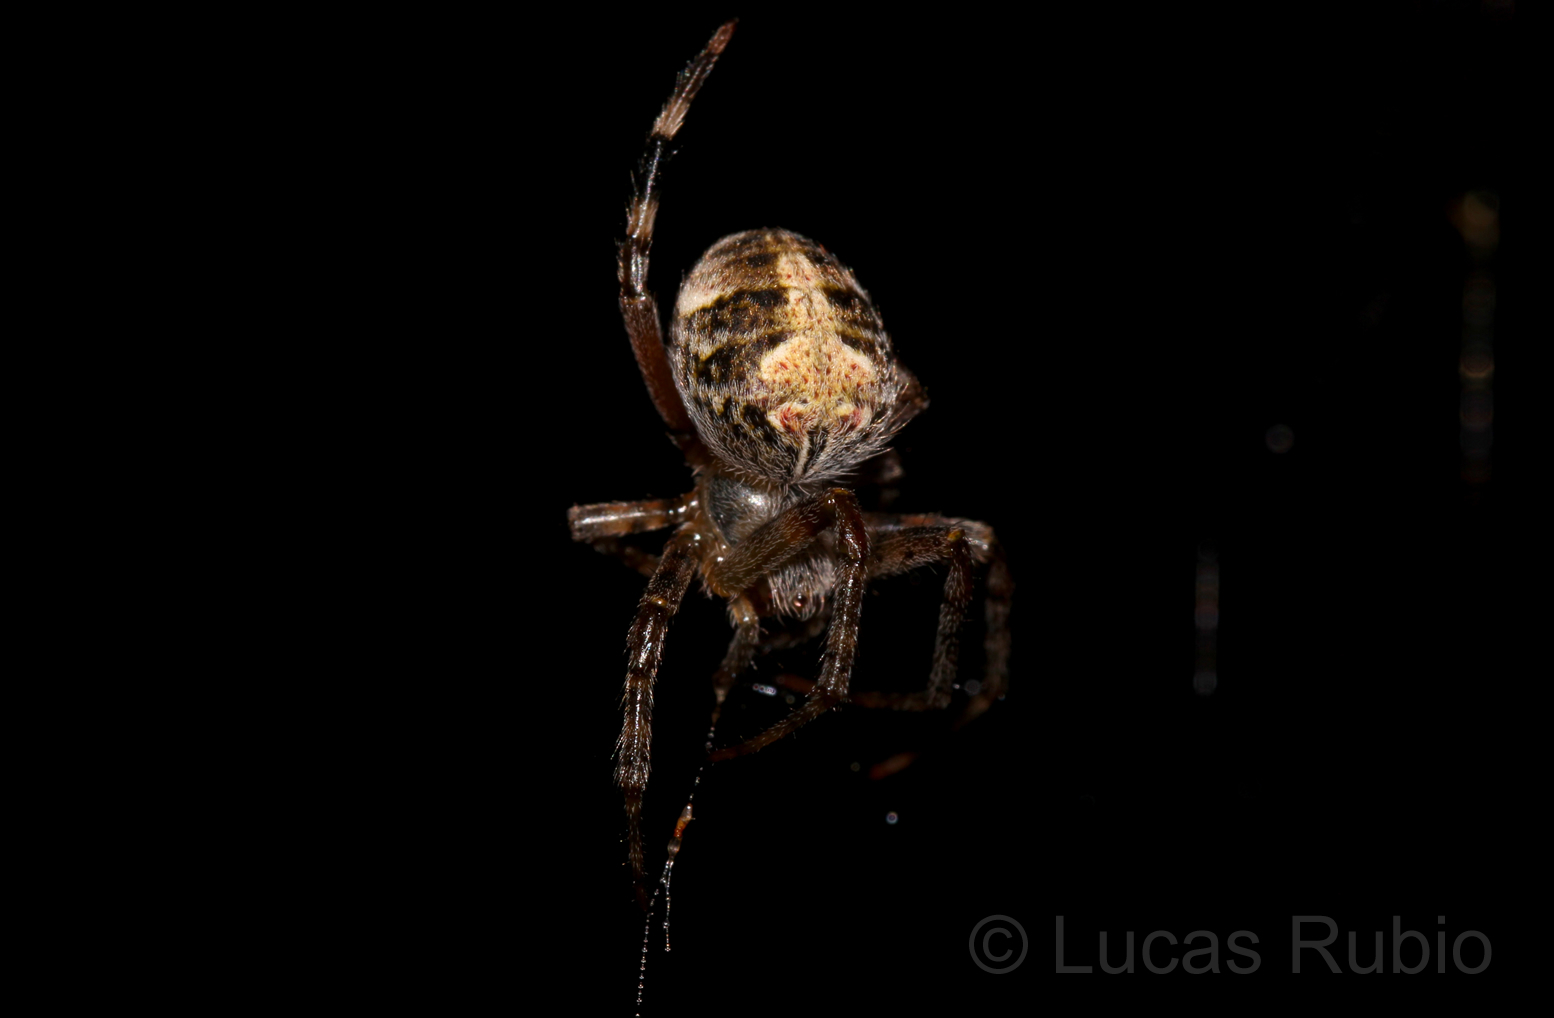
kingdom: Animalia
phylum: Arthropoda
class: Arachnida
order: Araneae
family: Araneidae
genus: Araneus
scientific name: Araneus omnicolor
